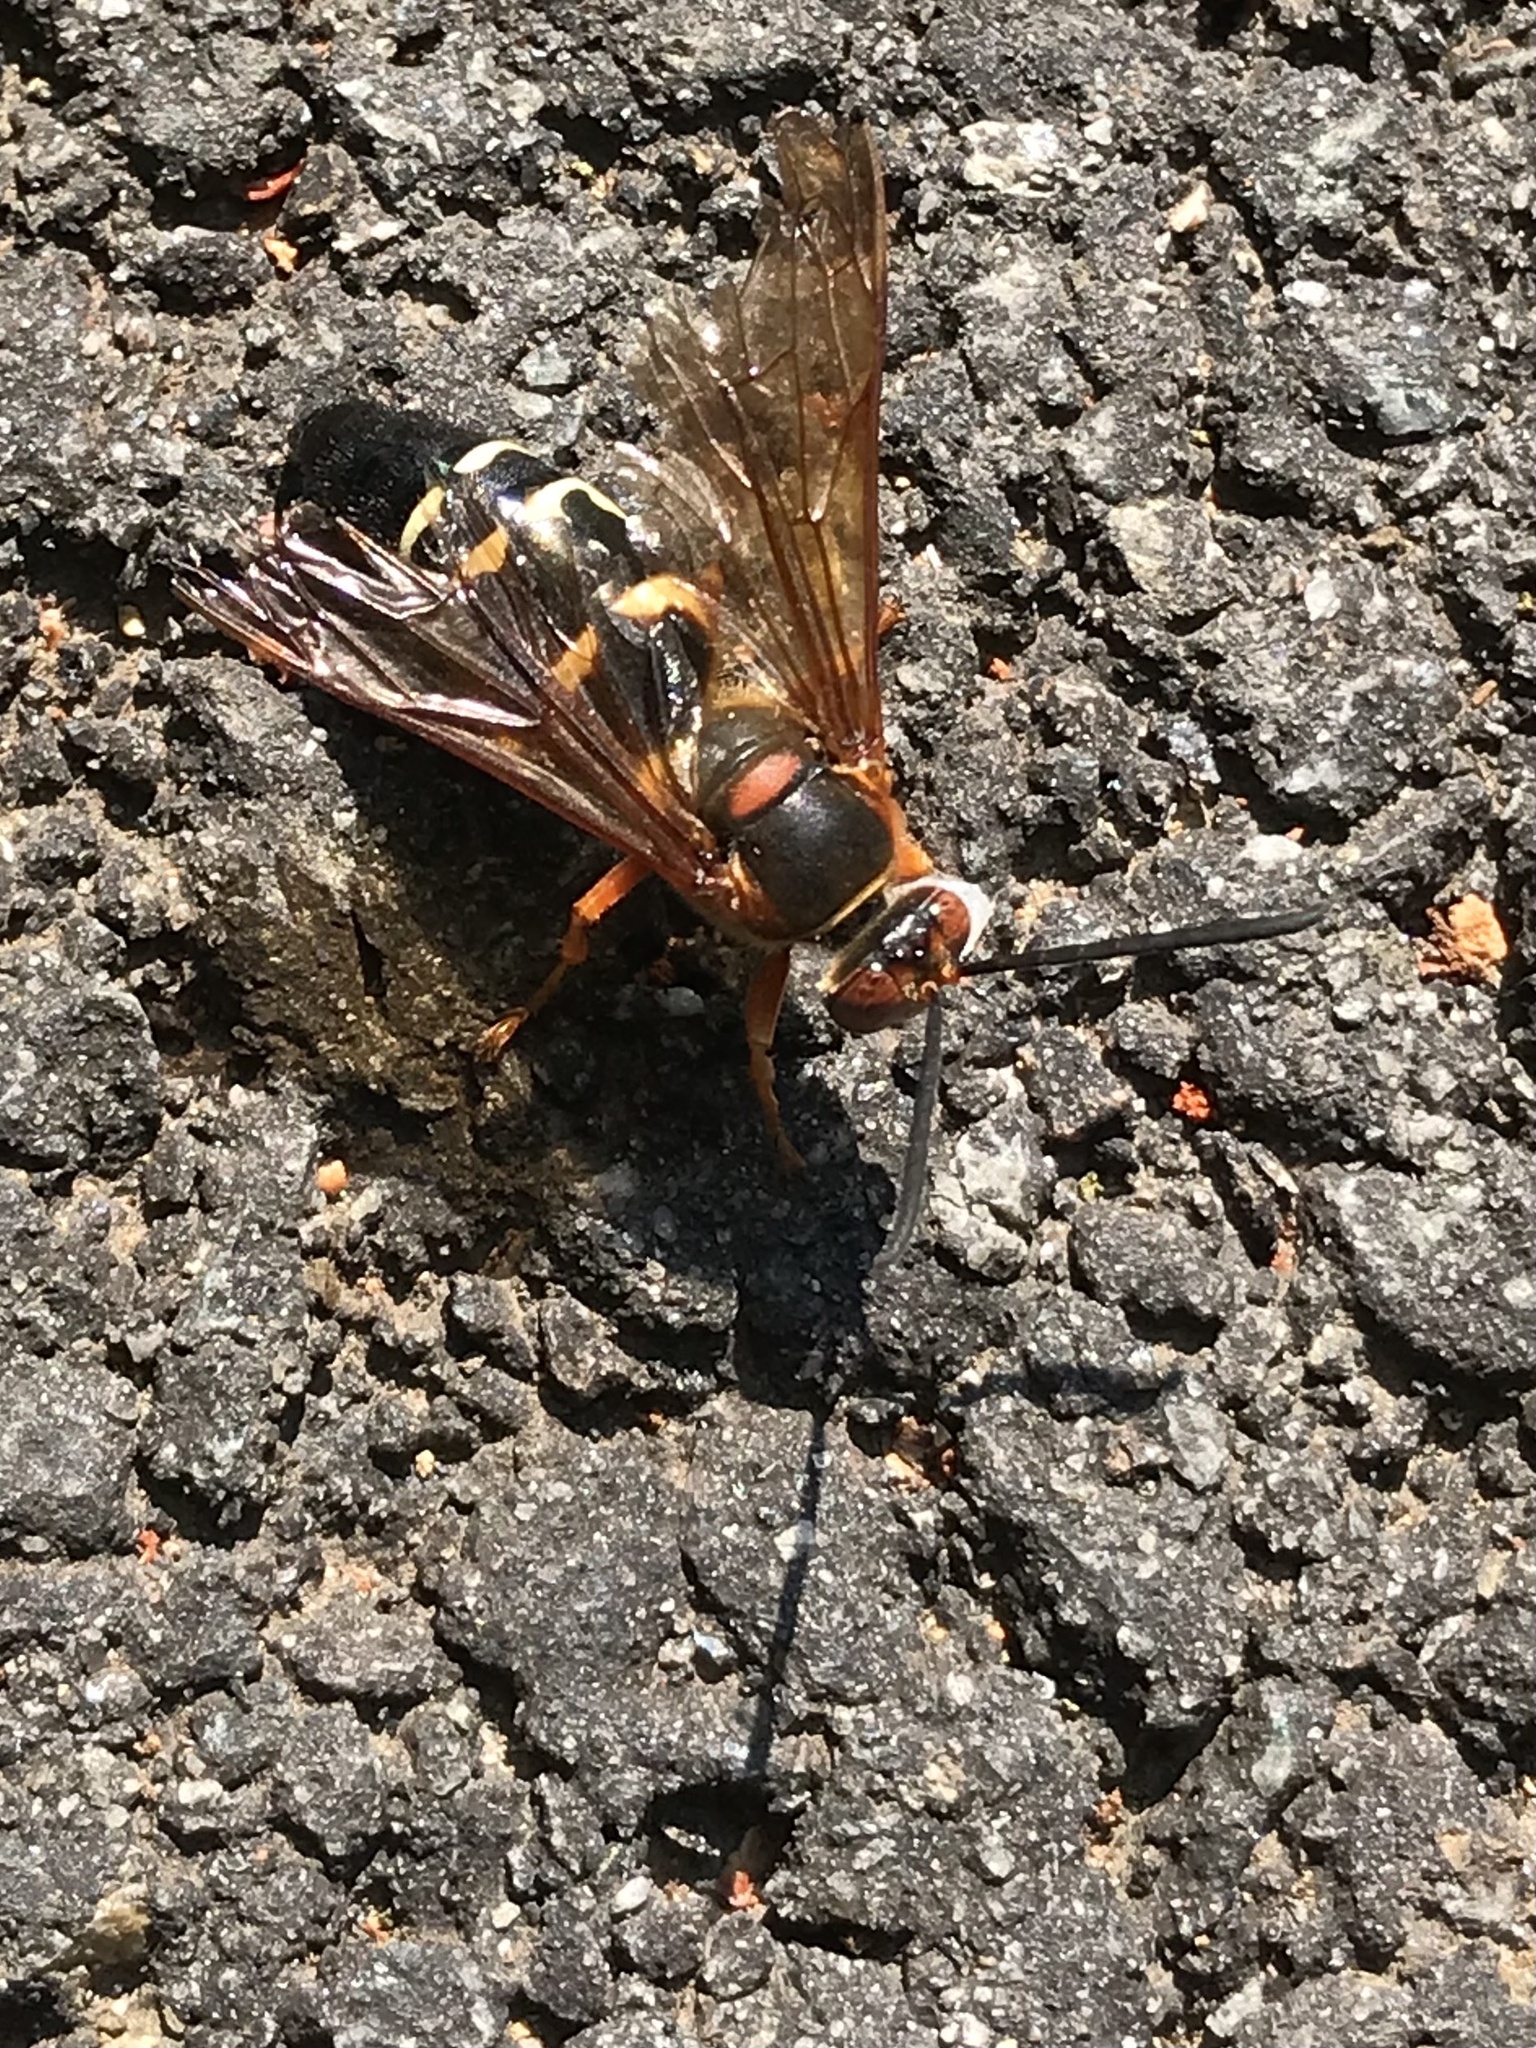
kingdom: Animalia
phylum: Arthropoda
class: Insecta
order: Hymenoptera
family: Crabronidae
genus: Sphecius
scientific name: Sphecius speciosus
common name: Cicada killer
